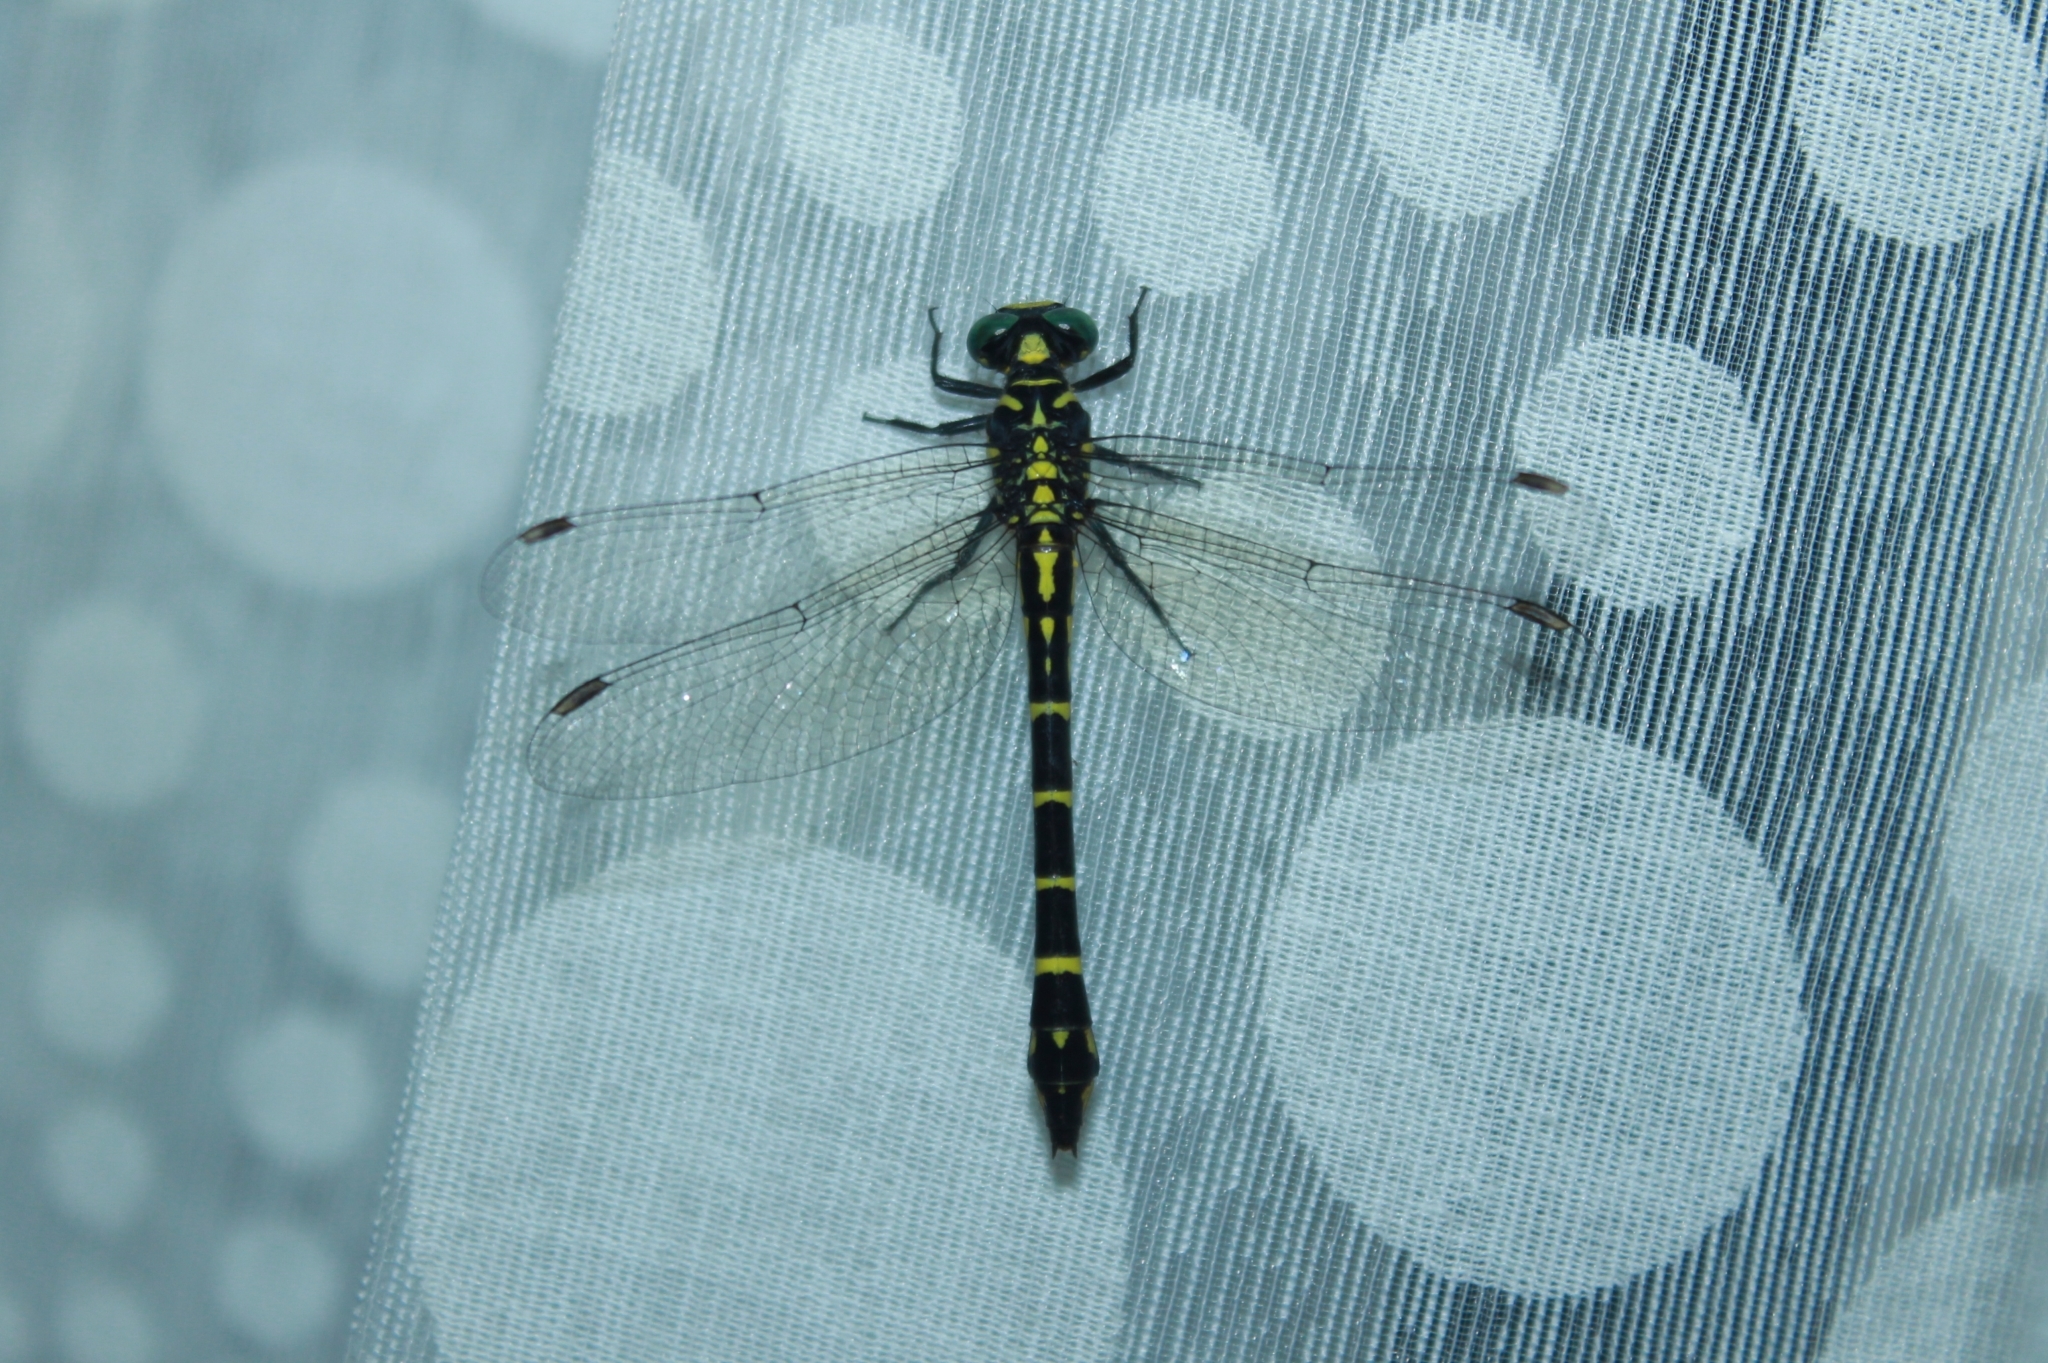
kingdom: Animalia
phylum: Arthropoda
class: Insecta
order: Odonata
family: Gomphidae
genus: Cyclogomphus
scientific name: Cyclogomphus flavoannulatus
